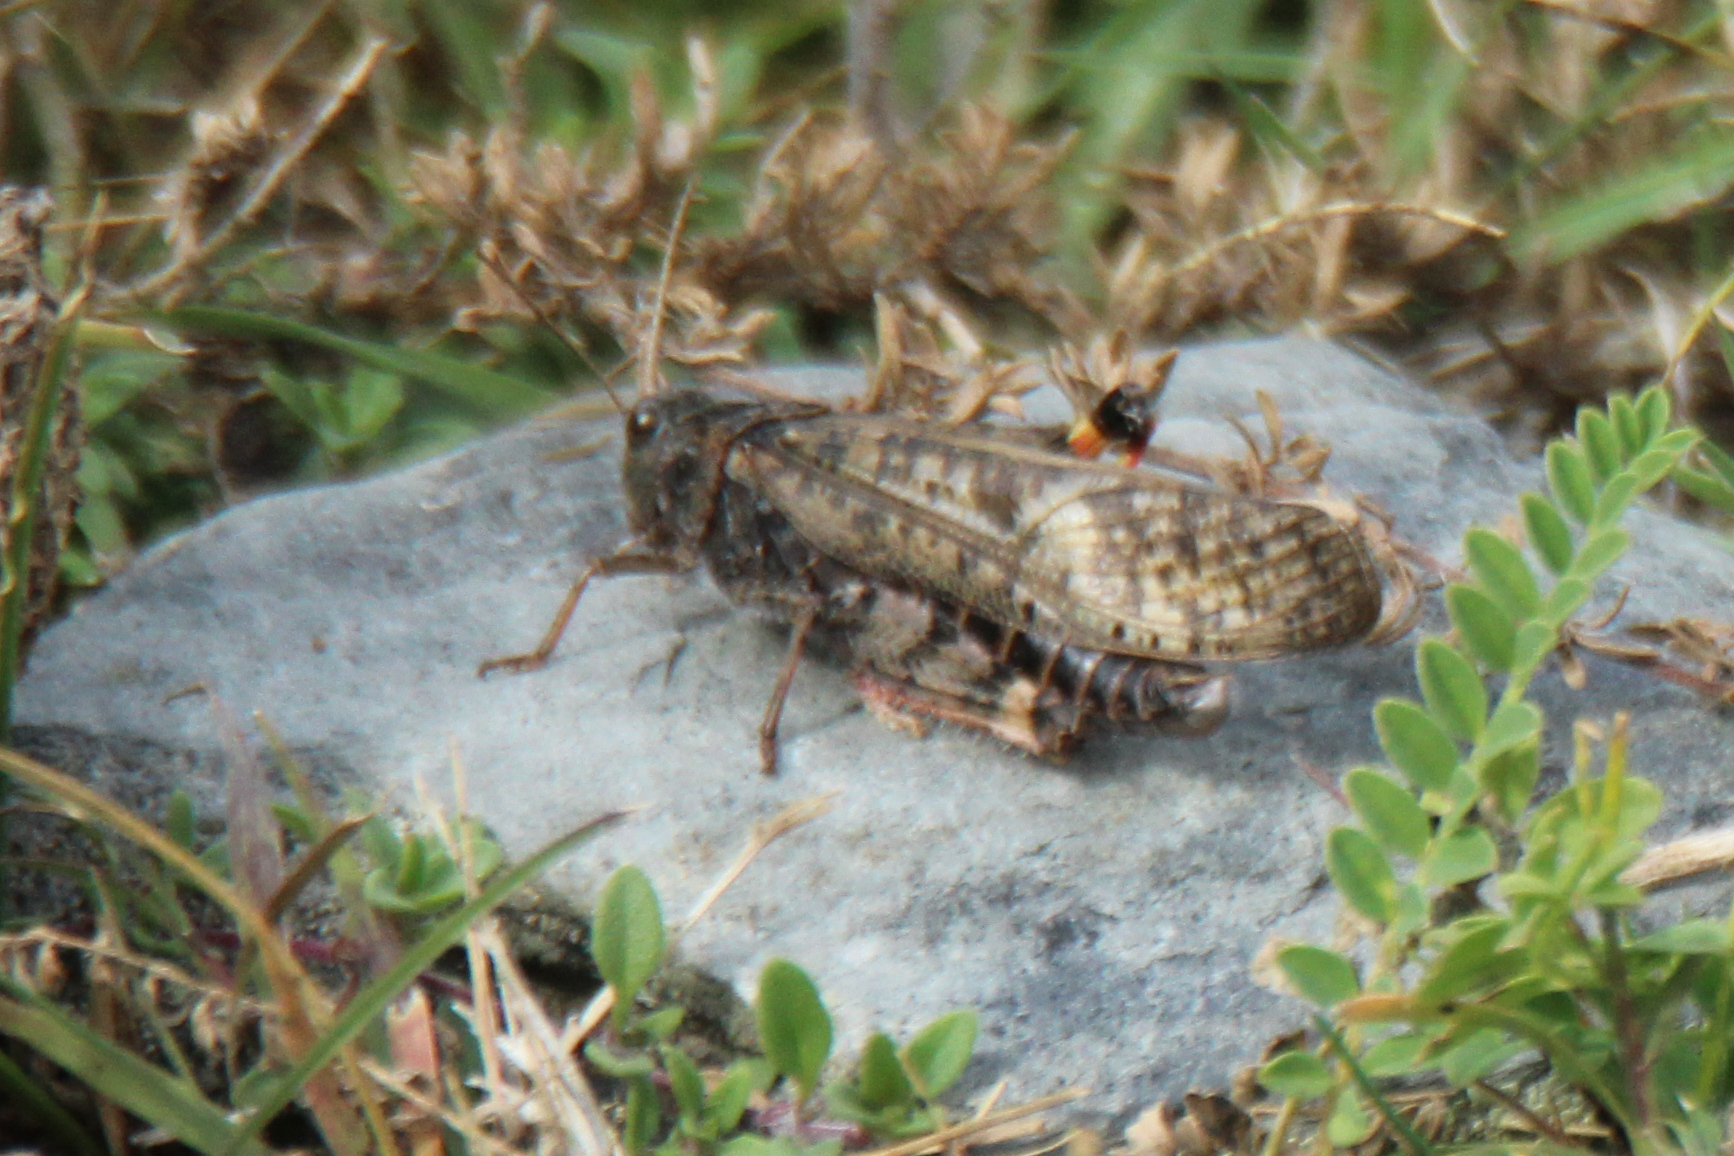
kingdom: Animalia
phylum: Arthropoda
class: Insecta
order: Orthoptera
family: Acrididae
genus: Angaracris
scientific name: Angaracris barabensis
